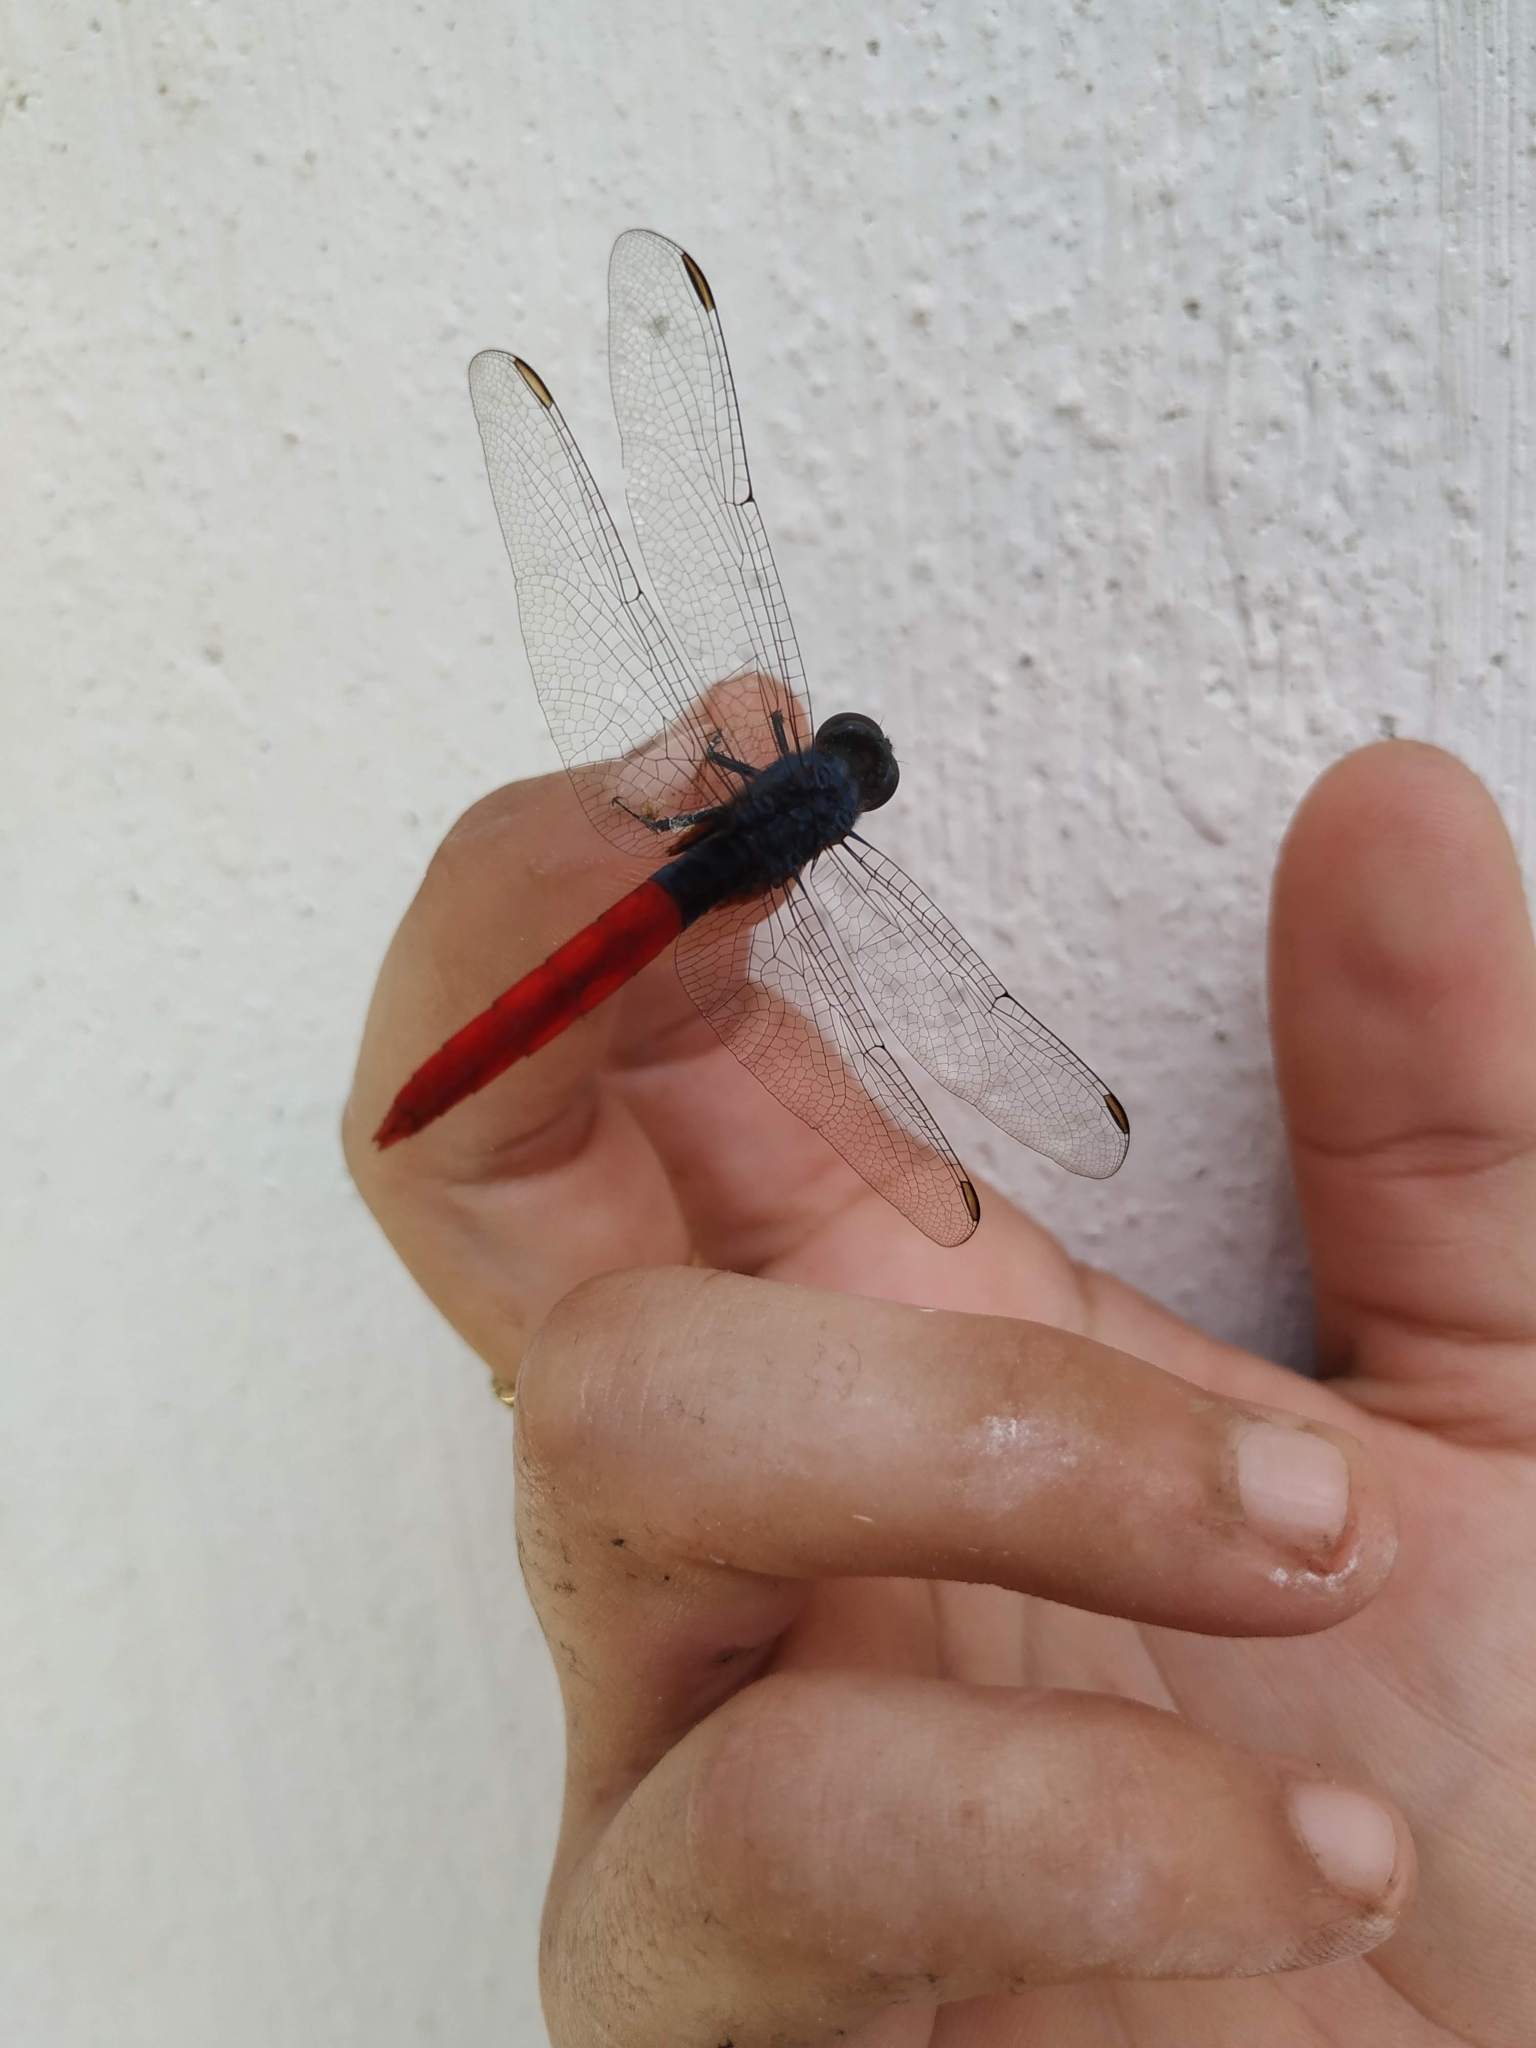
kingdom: Animalia
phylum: Arthropoda
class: Insecta
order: Odonata
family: Libellulidae
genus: Erythemis
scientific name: Erythemis peruviana
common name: Flame-tailed pondhawk
